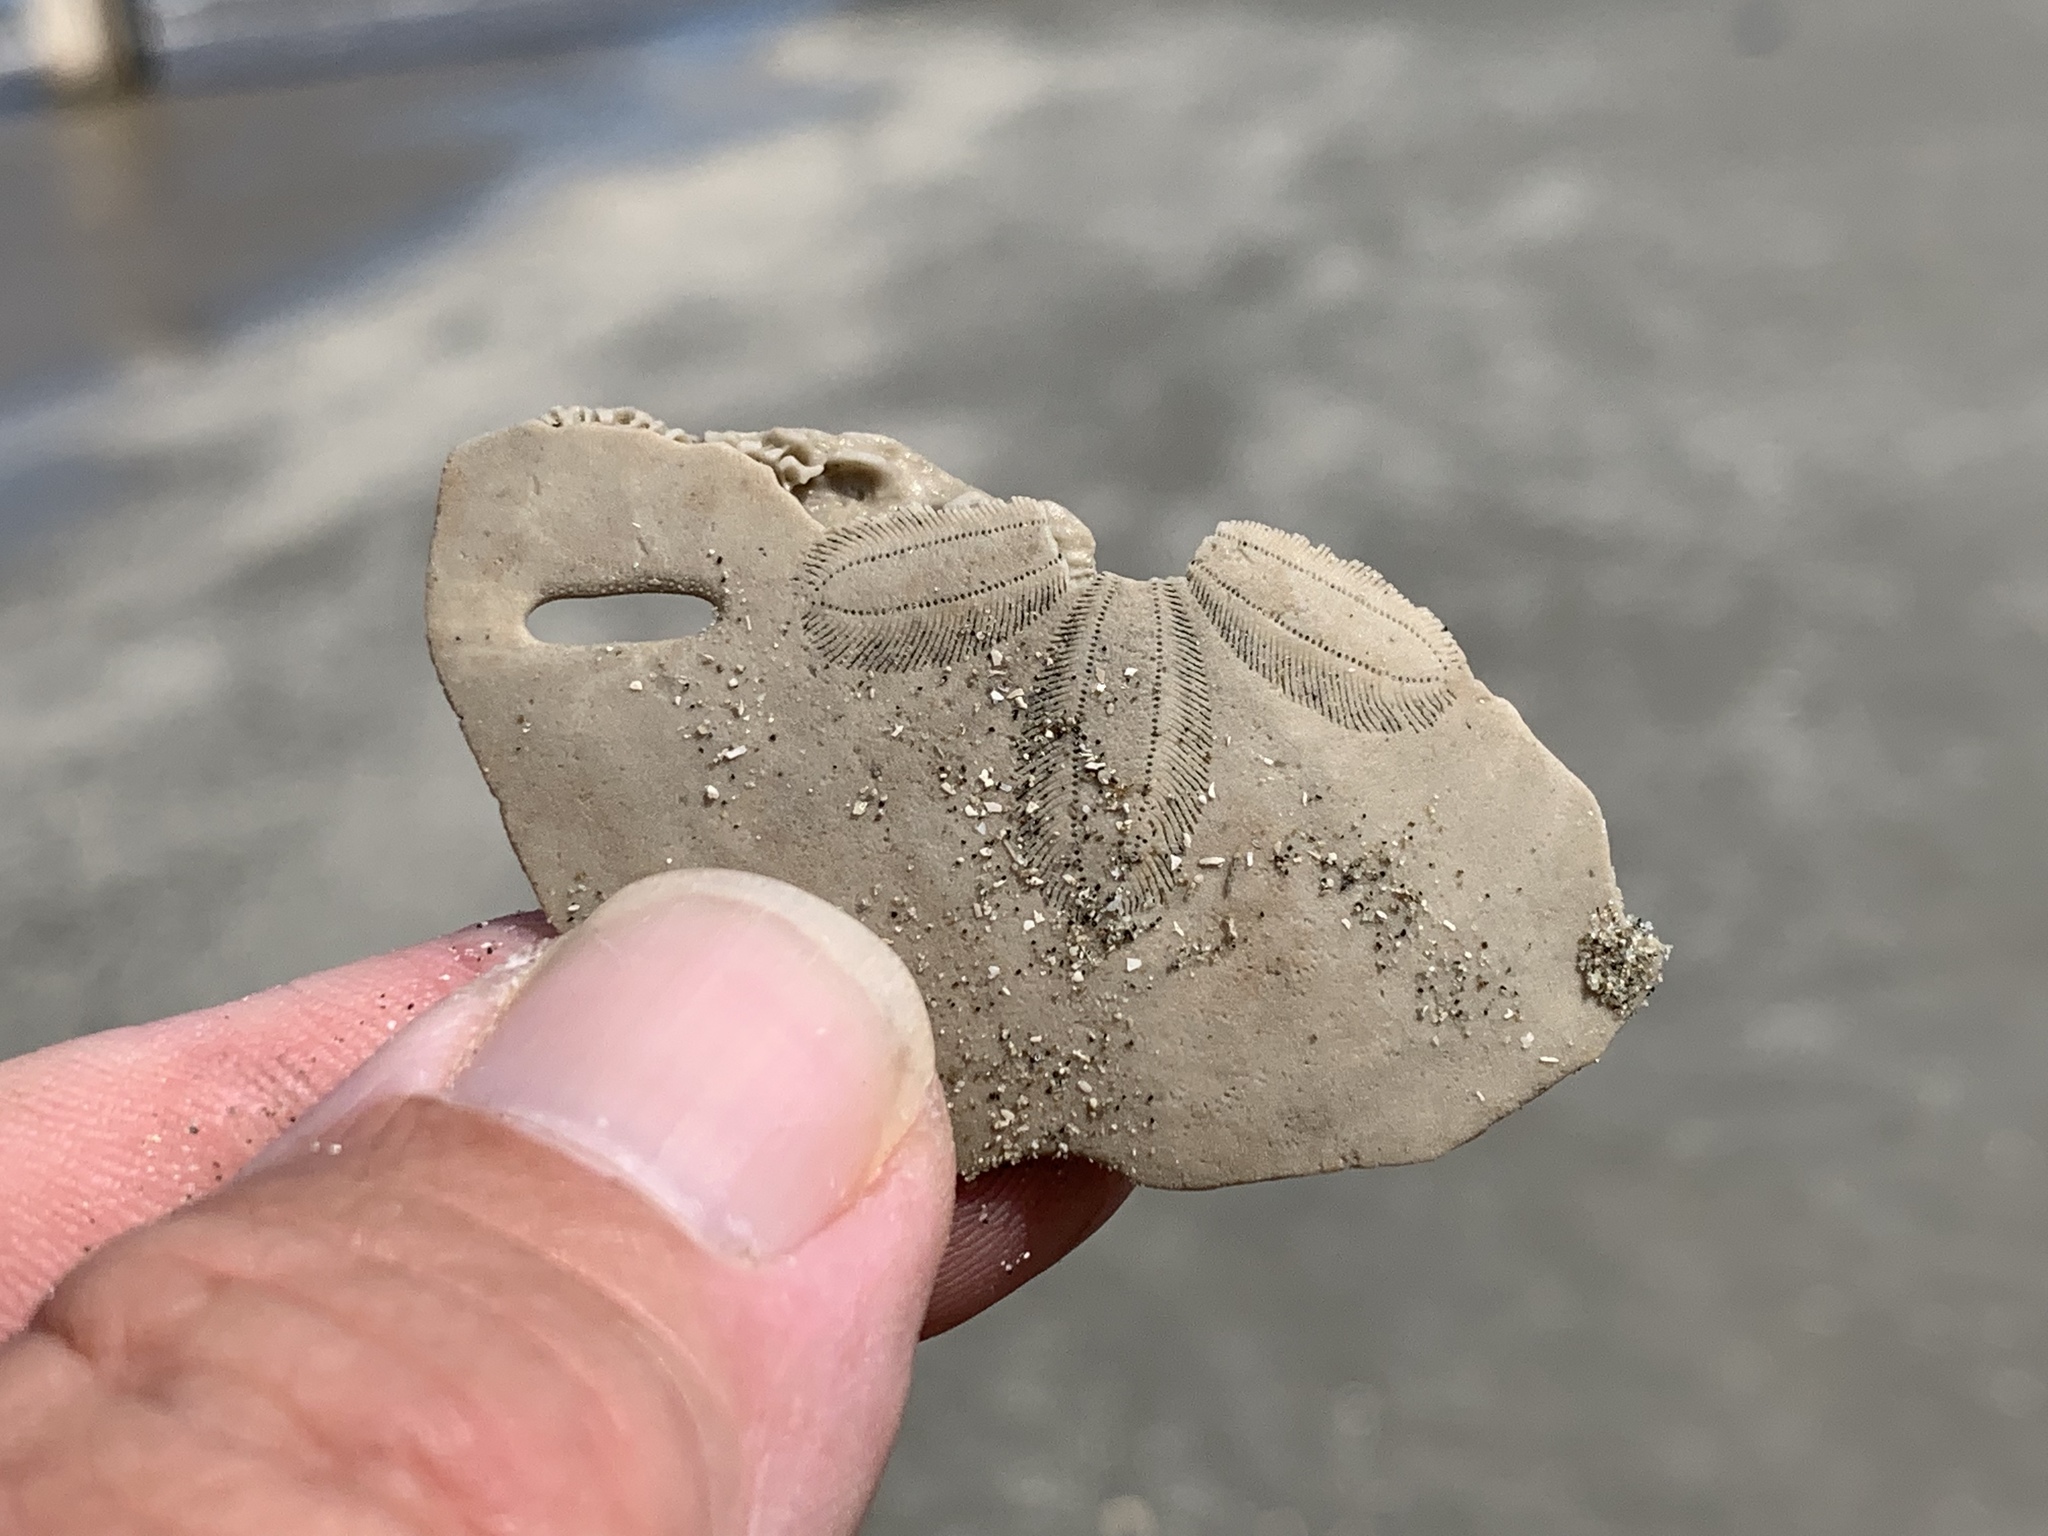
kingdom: Animalia
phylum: Echinodermata
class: Echinoidea
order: Echinolampadacea
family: Mellitidae
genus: Mellita
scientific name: Mellita quinquiesperforata
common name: Sand dollar
